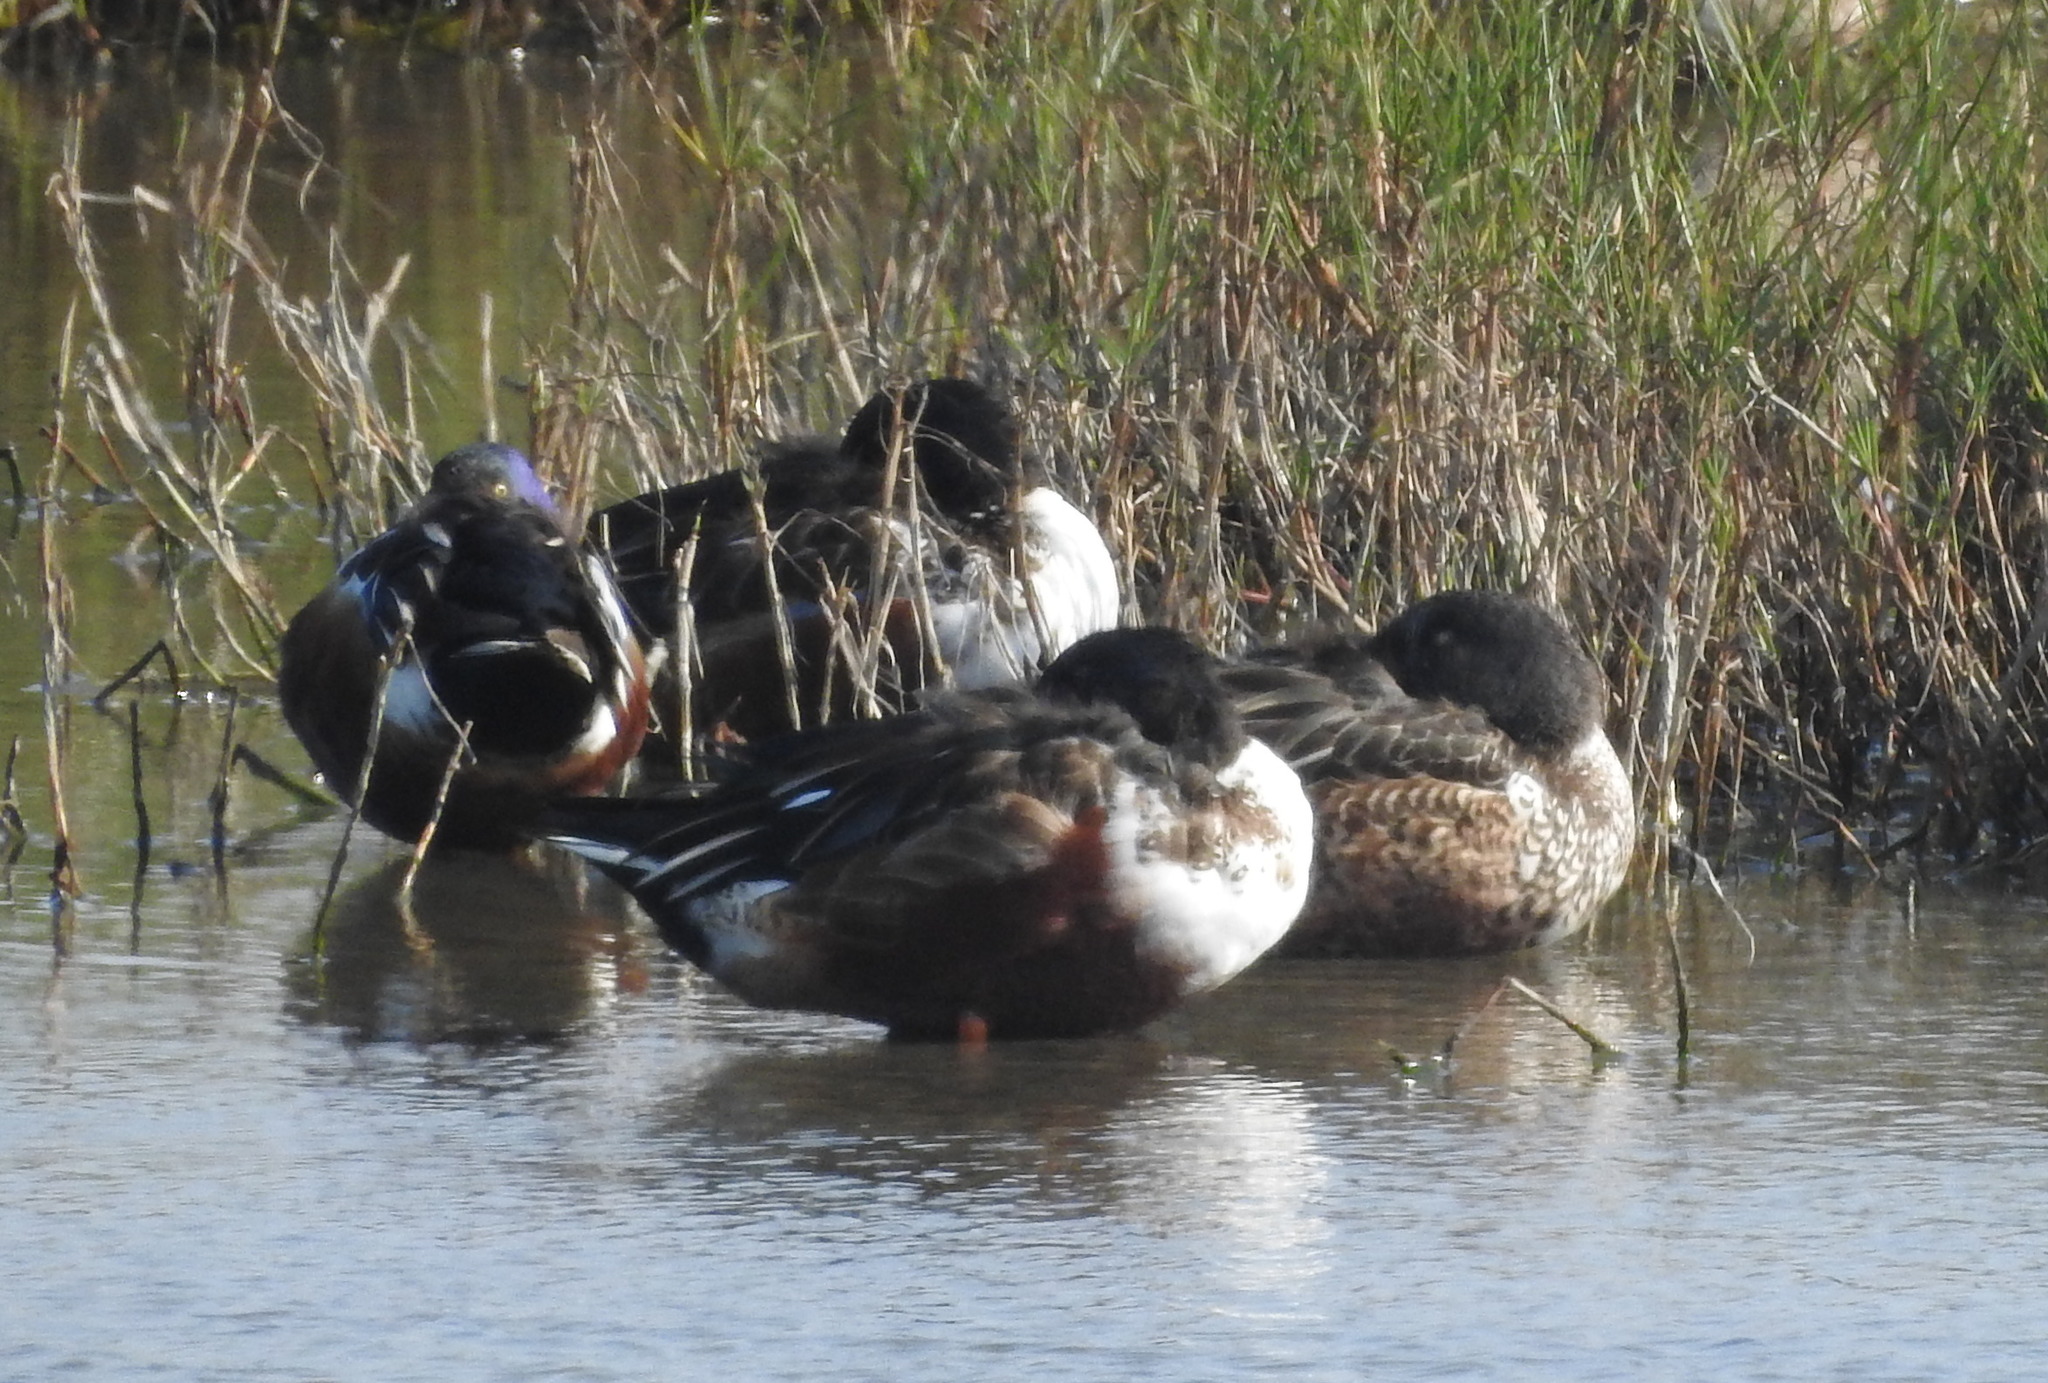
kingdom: Animalia
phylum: Chordata
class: Aves
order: Anseriformes
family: Anatidae
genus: Spatula
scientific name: Spatula clypeata
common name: Northern shoveler
